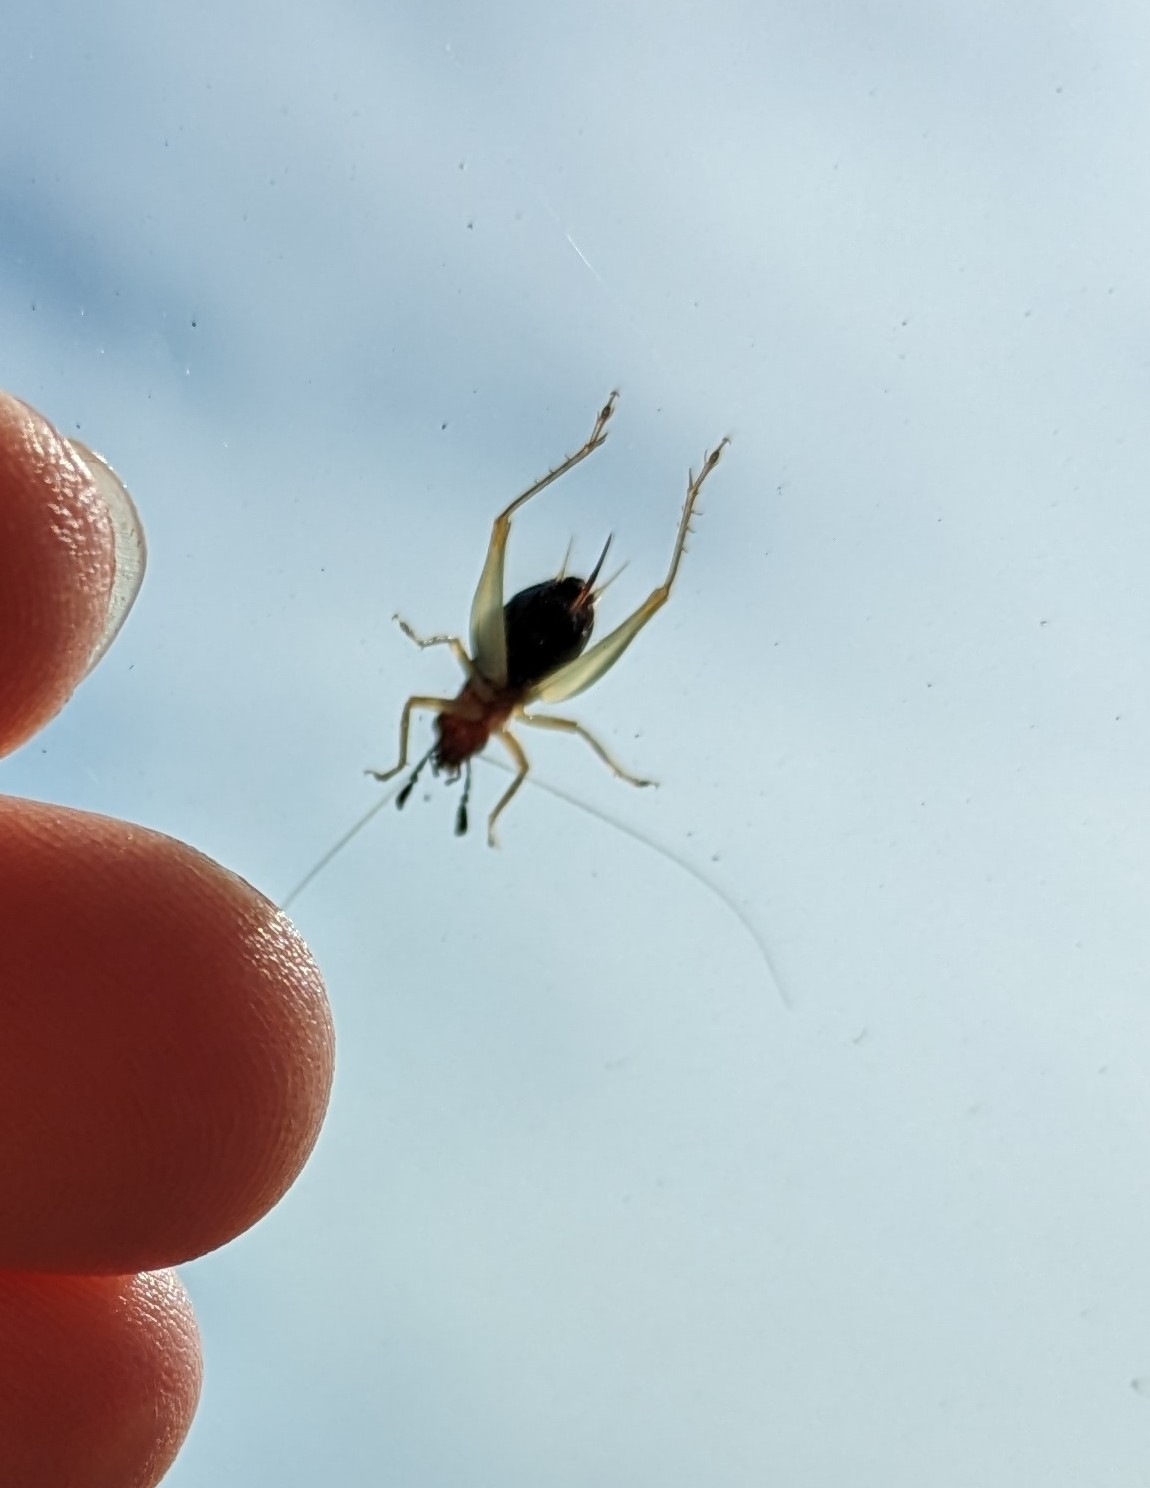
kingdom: Animalia
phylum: Arthropoda
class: Insecta
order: Orthoptera
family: Trigonidiidae
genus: Phyllopalpus
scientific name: Phyllopalpus pulchellus
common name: Handsome trig
